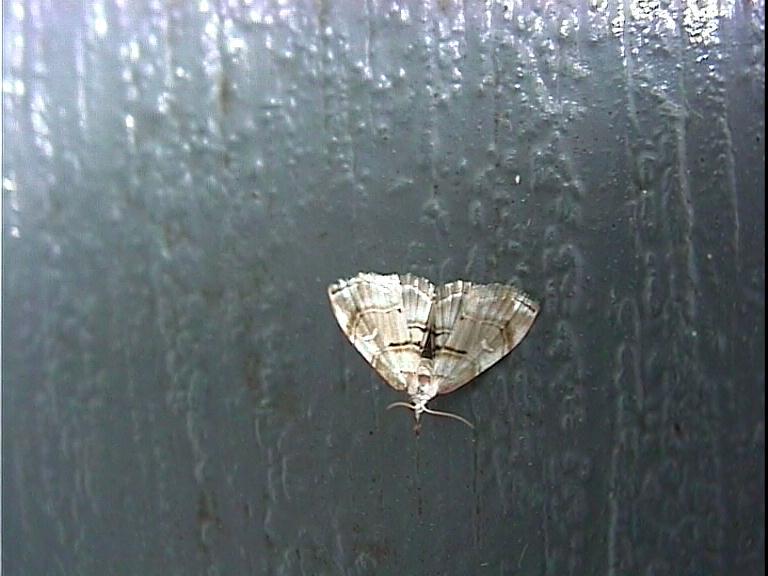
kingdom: Animalia
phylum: Arthropoda
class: Insecta
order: Lepidoptera
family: Crambidae
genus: Trichophysetis
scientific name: Trichophysetis
